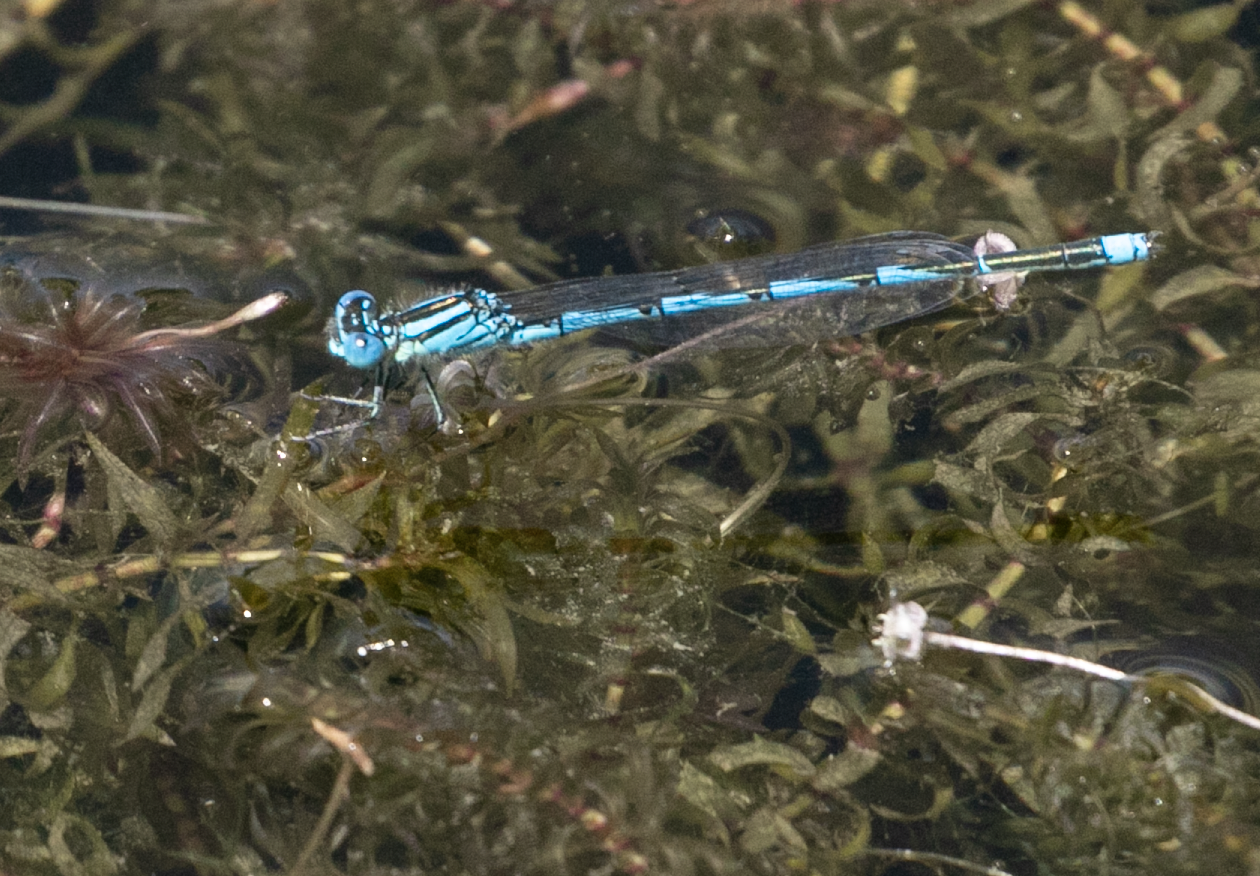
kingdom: Animalia
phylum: Arthropoda
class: Insecta
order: Odonata
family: Coenagrionidae
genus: Erythromma
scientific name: Erythromma lindenii
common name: Blue-eye
